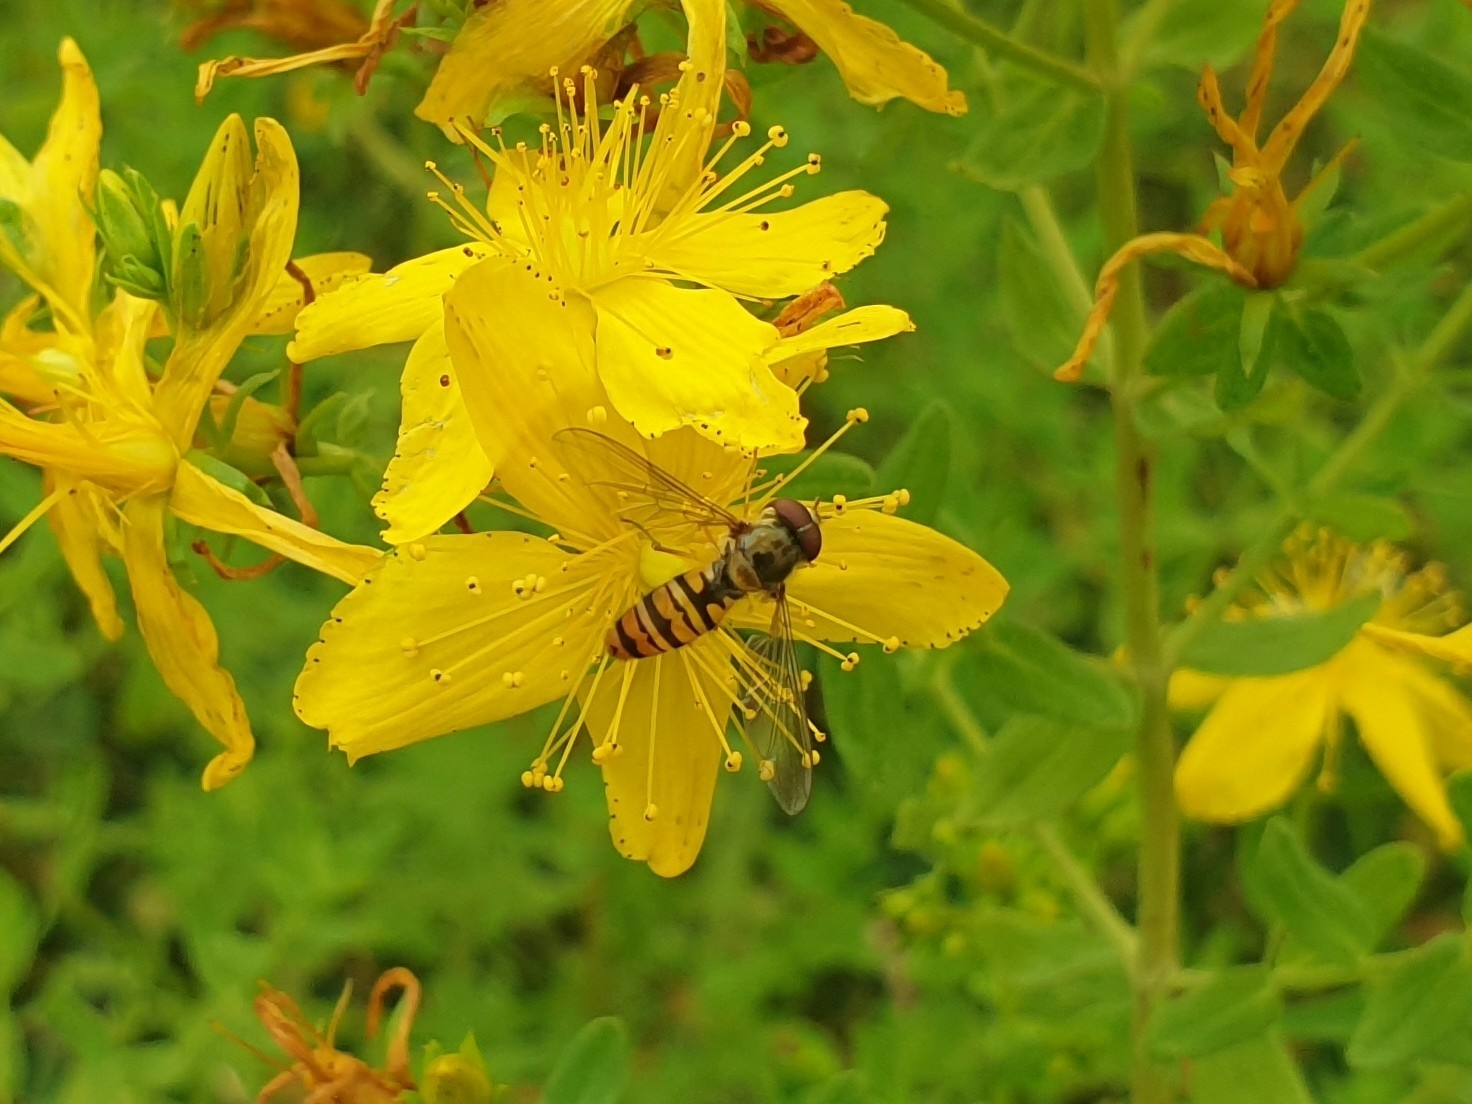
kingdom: Animalia
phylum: Arthropoda
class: Insecta
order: Diptera
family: Syrphidae
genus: Episyrphus
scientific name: Episyrphus balteatus
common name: Marmalade hoverfly
